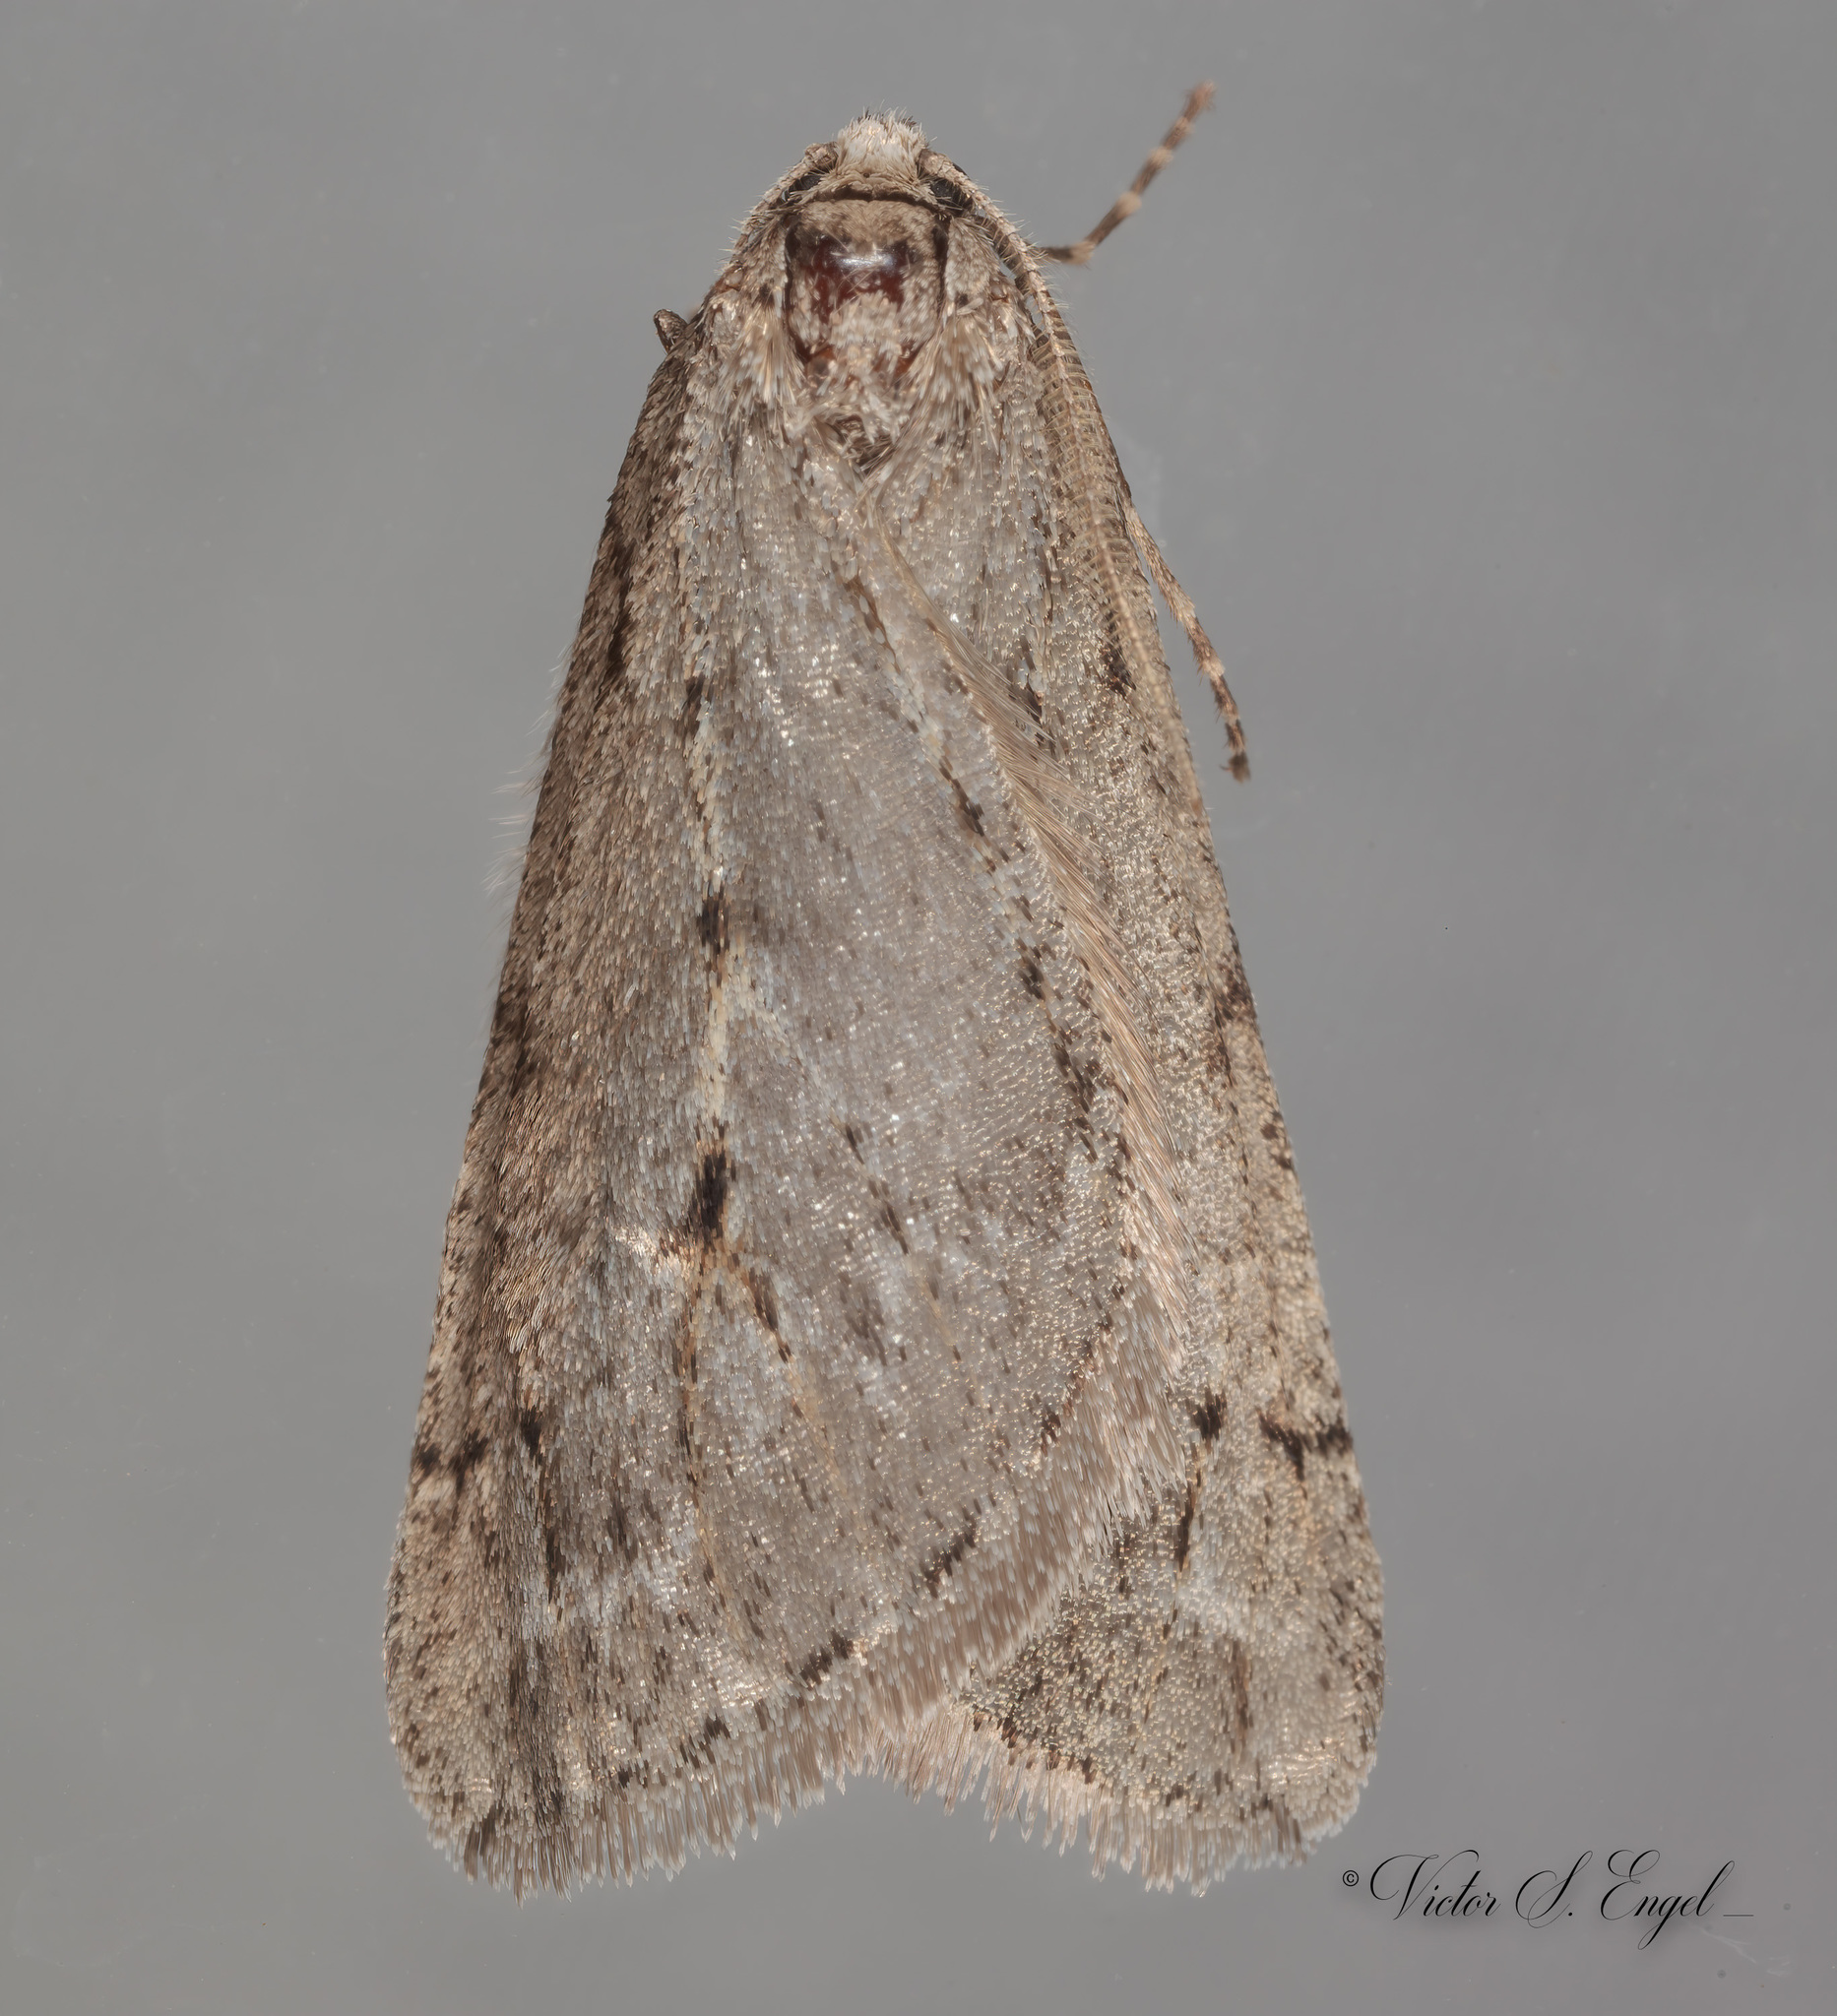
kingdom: Animalia
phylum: Arthropoda
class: Insecta
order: Lepidoptera
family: Geometridae
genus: Paleacrita
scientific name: Paleacrita vernata
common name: Spring cankerworm
